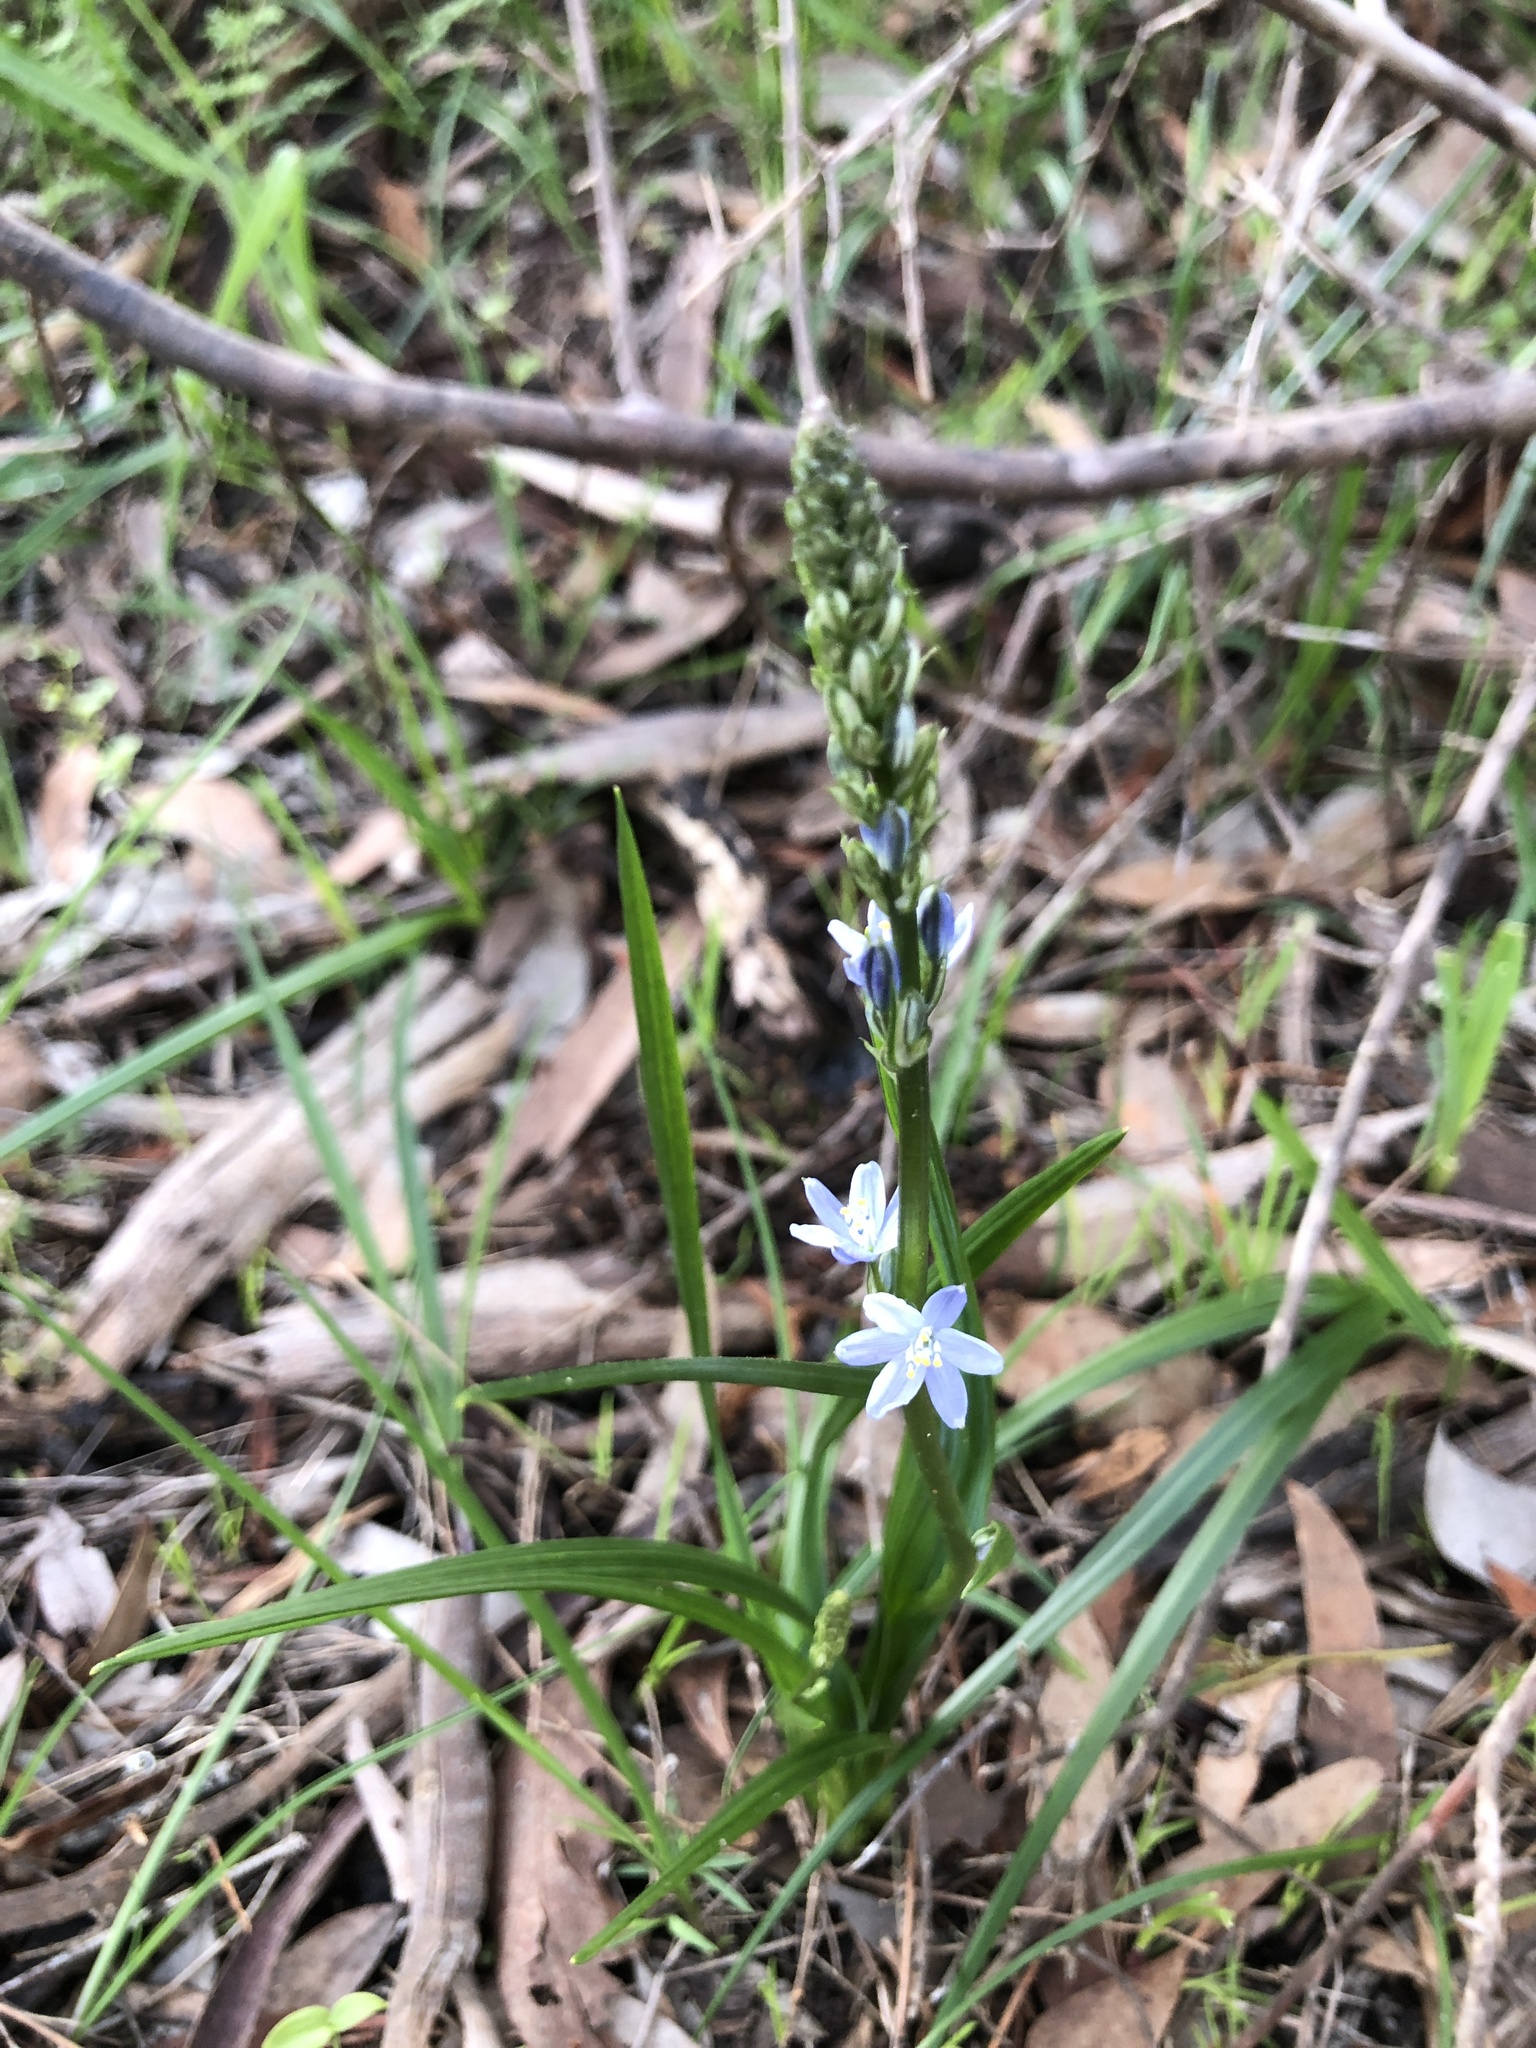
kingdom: Plantae
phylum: Tracheophyta
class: Liliopsida
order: Asparagales
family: Asphodelaceae
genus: Caesia
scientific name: Caesia calliantha
